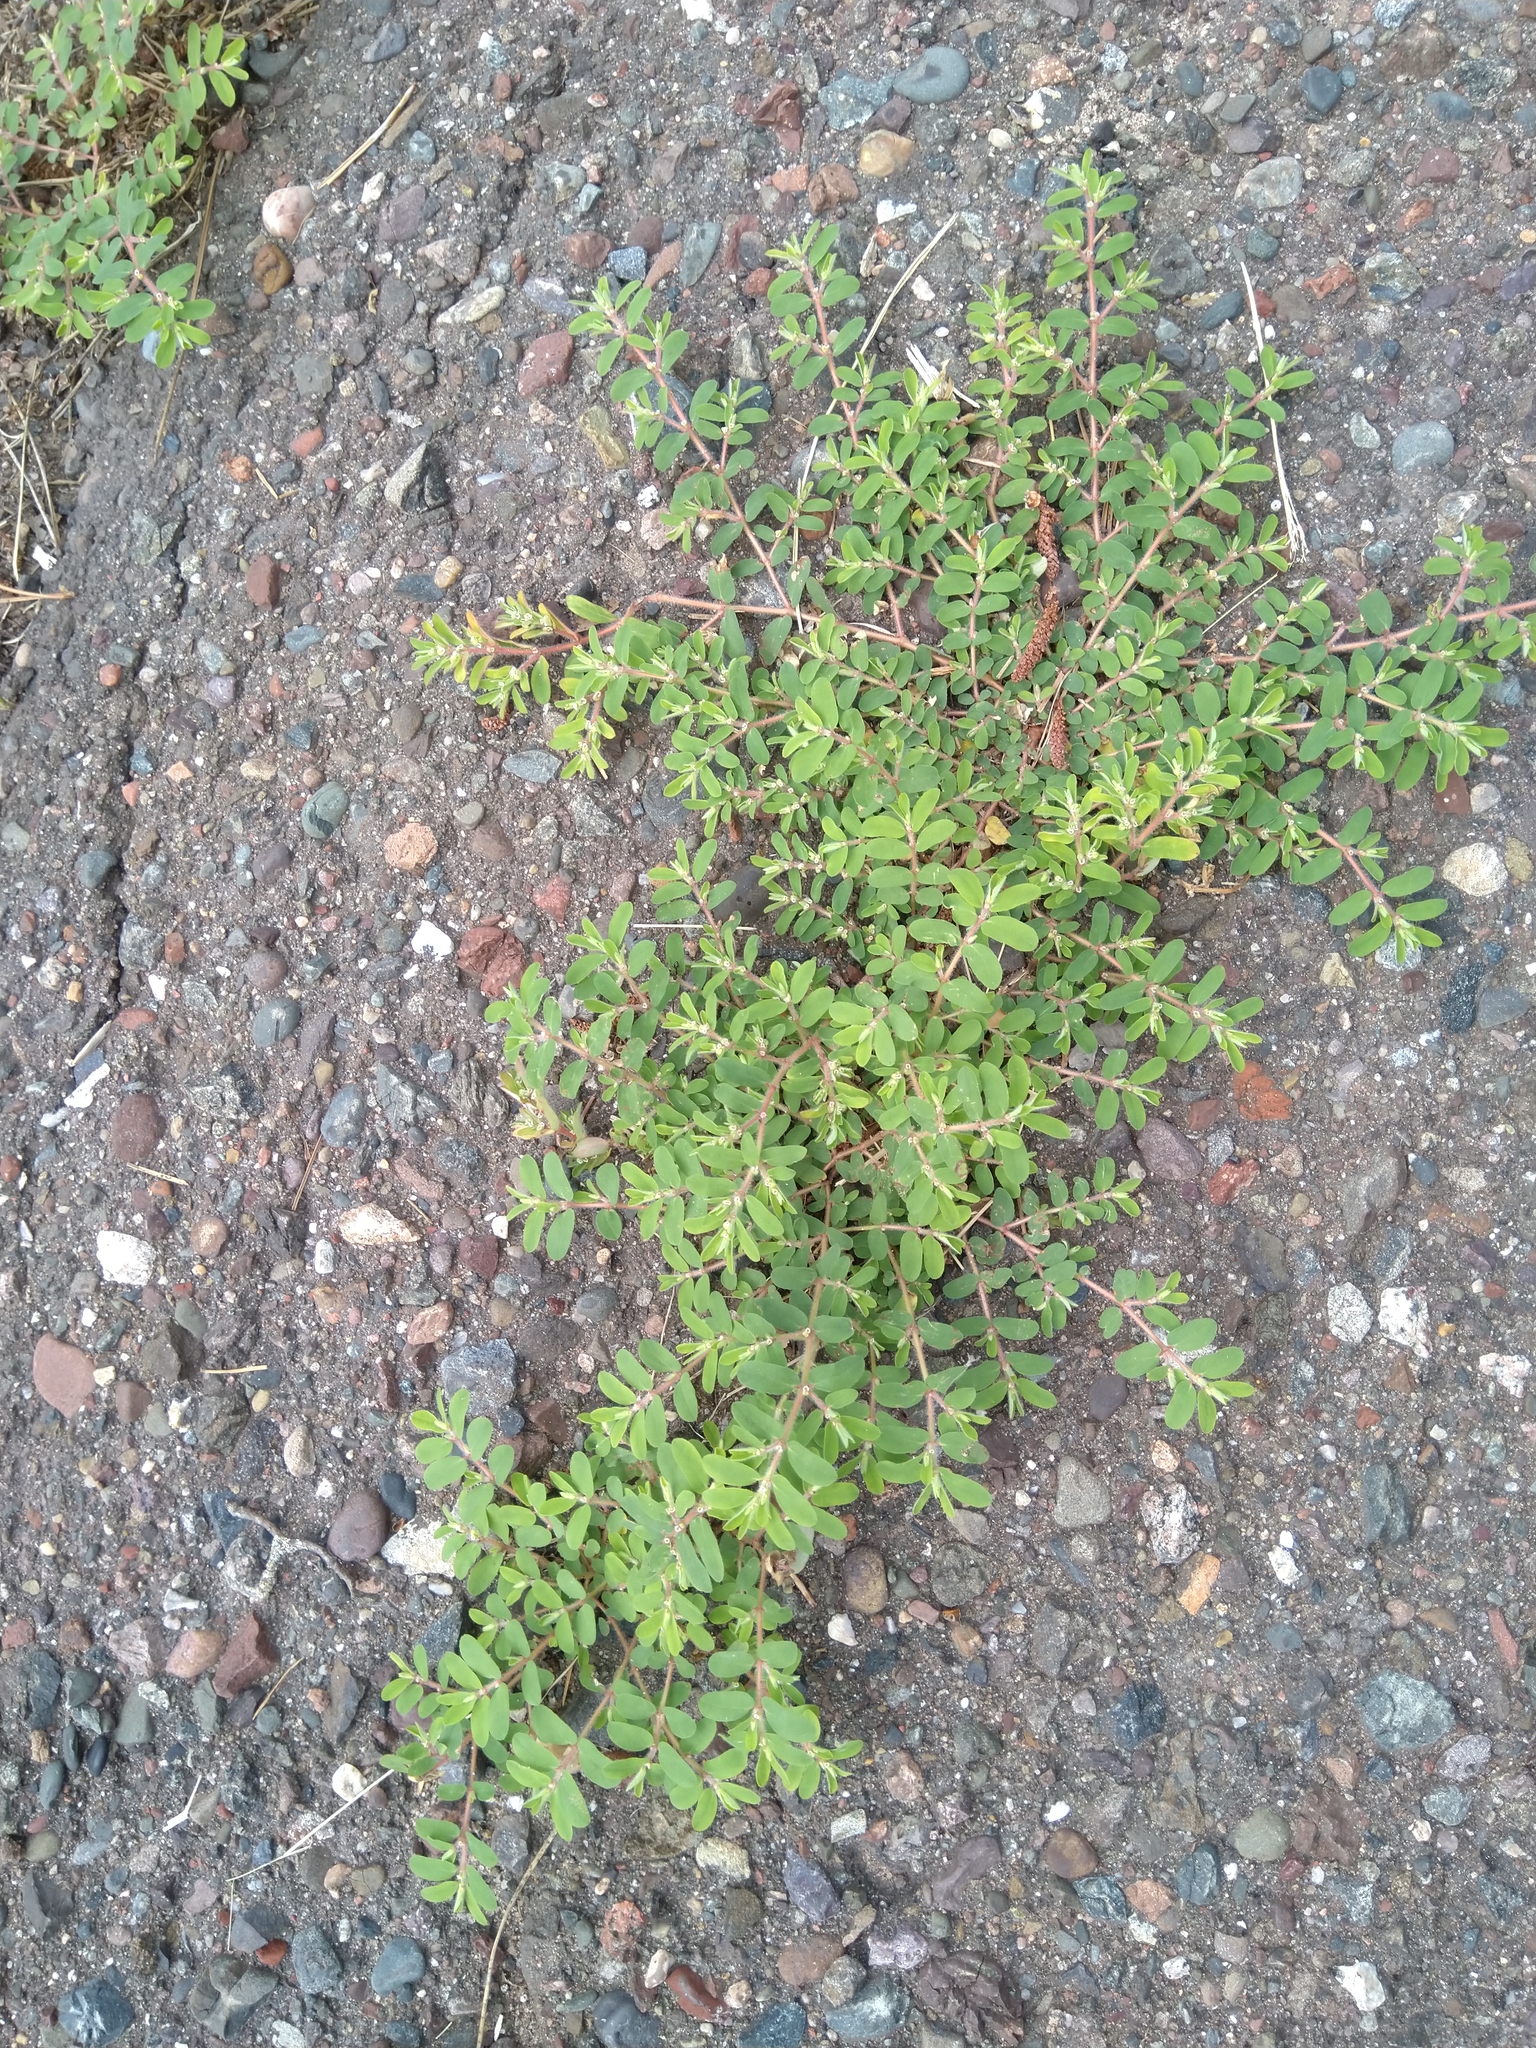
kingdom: Plantae
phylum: Tracheophyta
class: Magnoliopsida
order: Malpighiales
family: Euphorbiaceae
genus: Euphorbia
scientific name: Euphorbia maculata
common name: Spotted spurge
